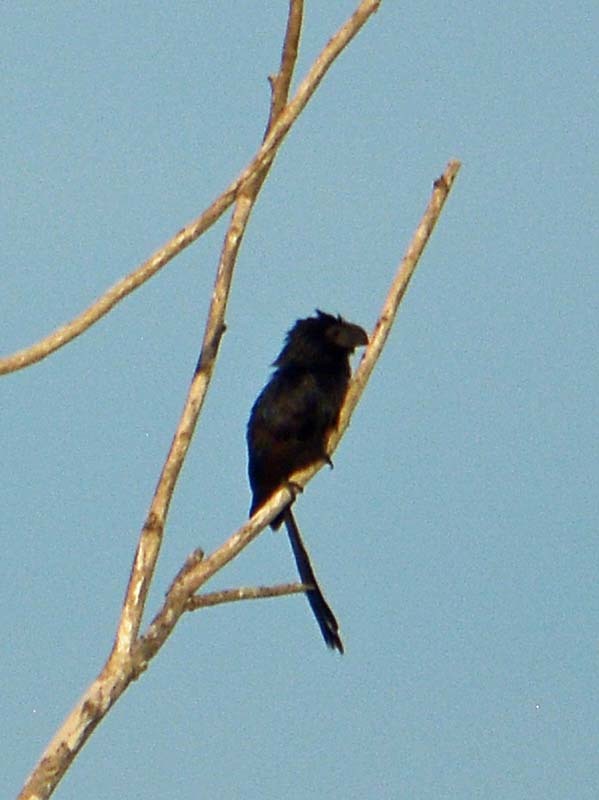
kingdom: Animalia
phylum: Chordata
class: Aves
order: Cuculiformes
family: Cuculidae
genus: Crotophaga
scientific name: Crotophaga sulcirostris
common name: Groove-billed ani
